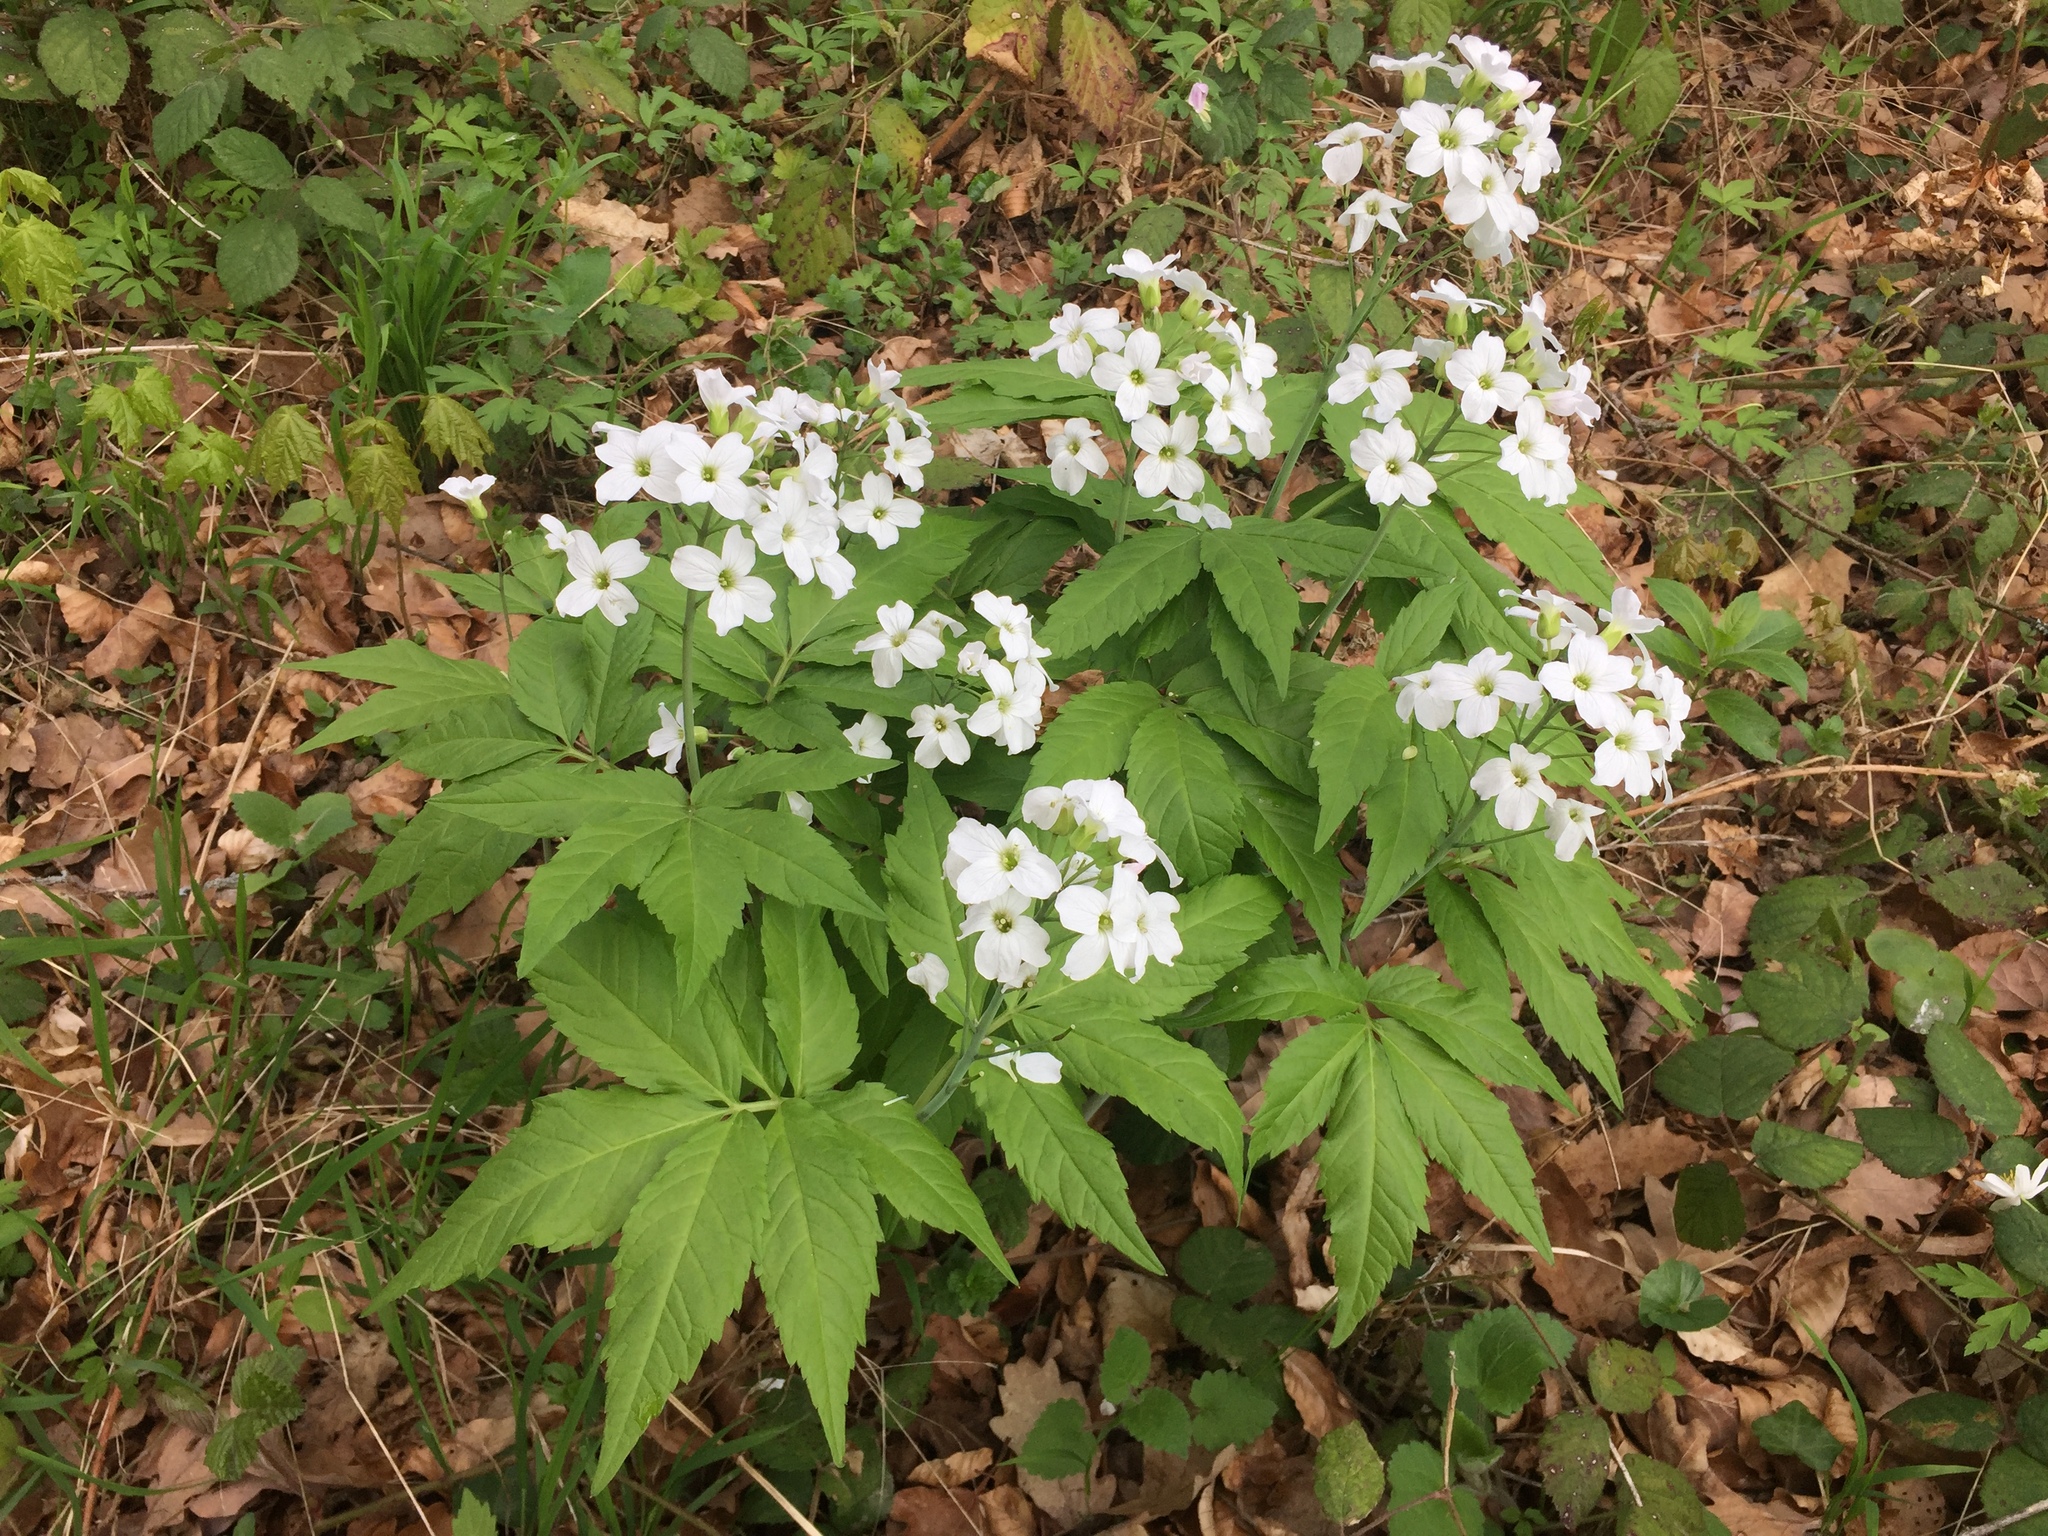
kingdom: Plantae
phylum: Tracheophyta
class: Magnoliopsida
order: Brassicales
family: Brassicaceae
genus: Cardamine
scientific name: Cardamine heptaphylla
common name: Pinnate coralroot
